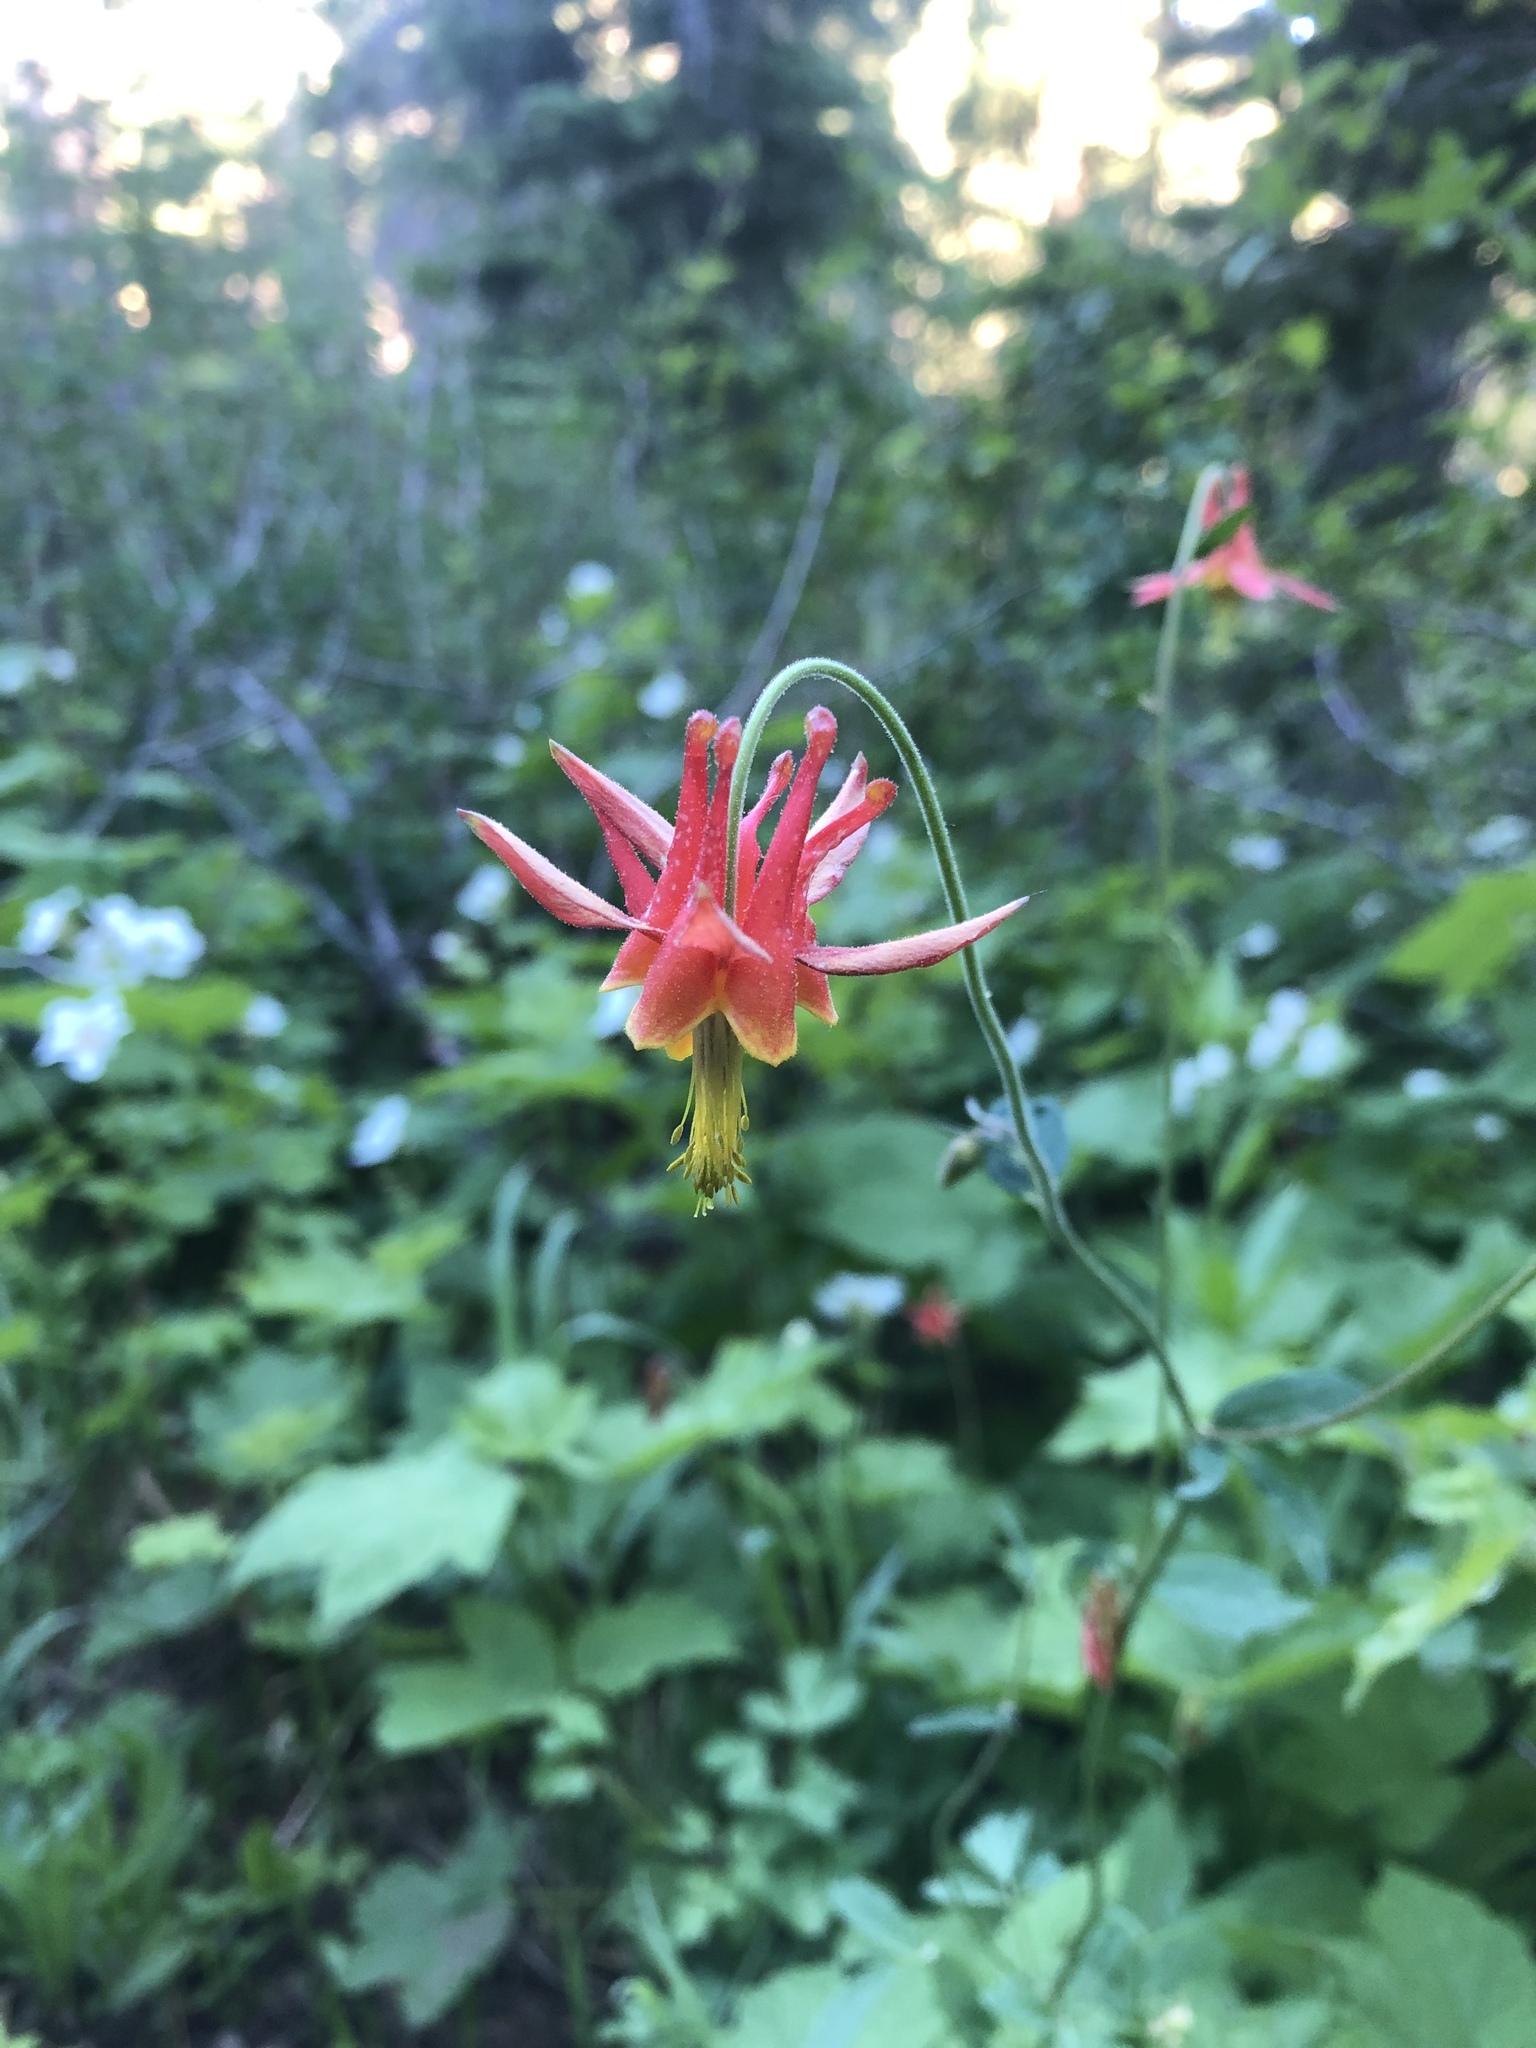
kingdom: Plantae
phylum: Tracheophyta
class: Magnoliopsida
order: Ranunculales
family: Ranunculaceae
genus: Aquilegia
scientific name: Aquilegia formosa
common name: Sitka columbine
